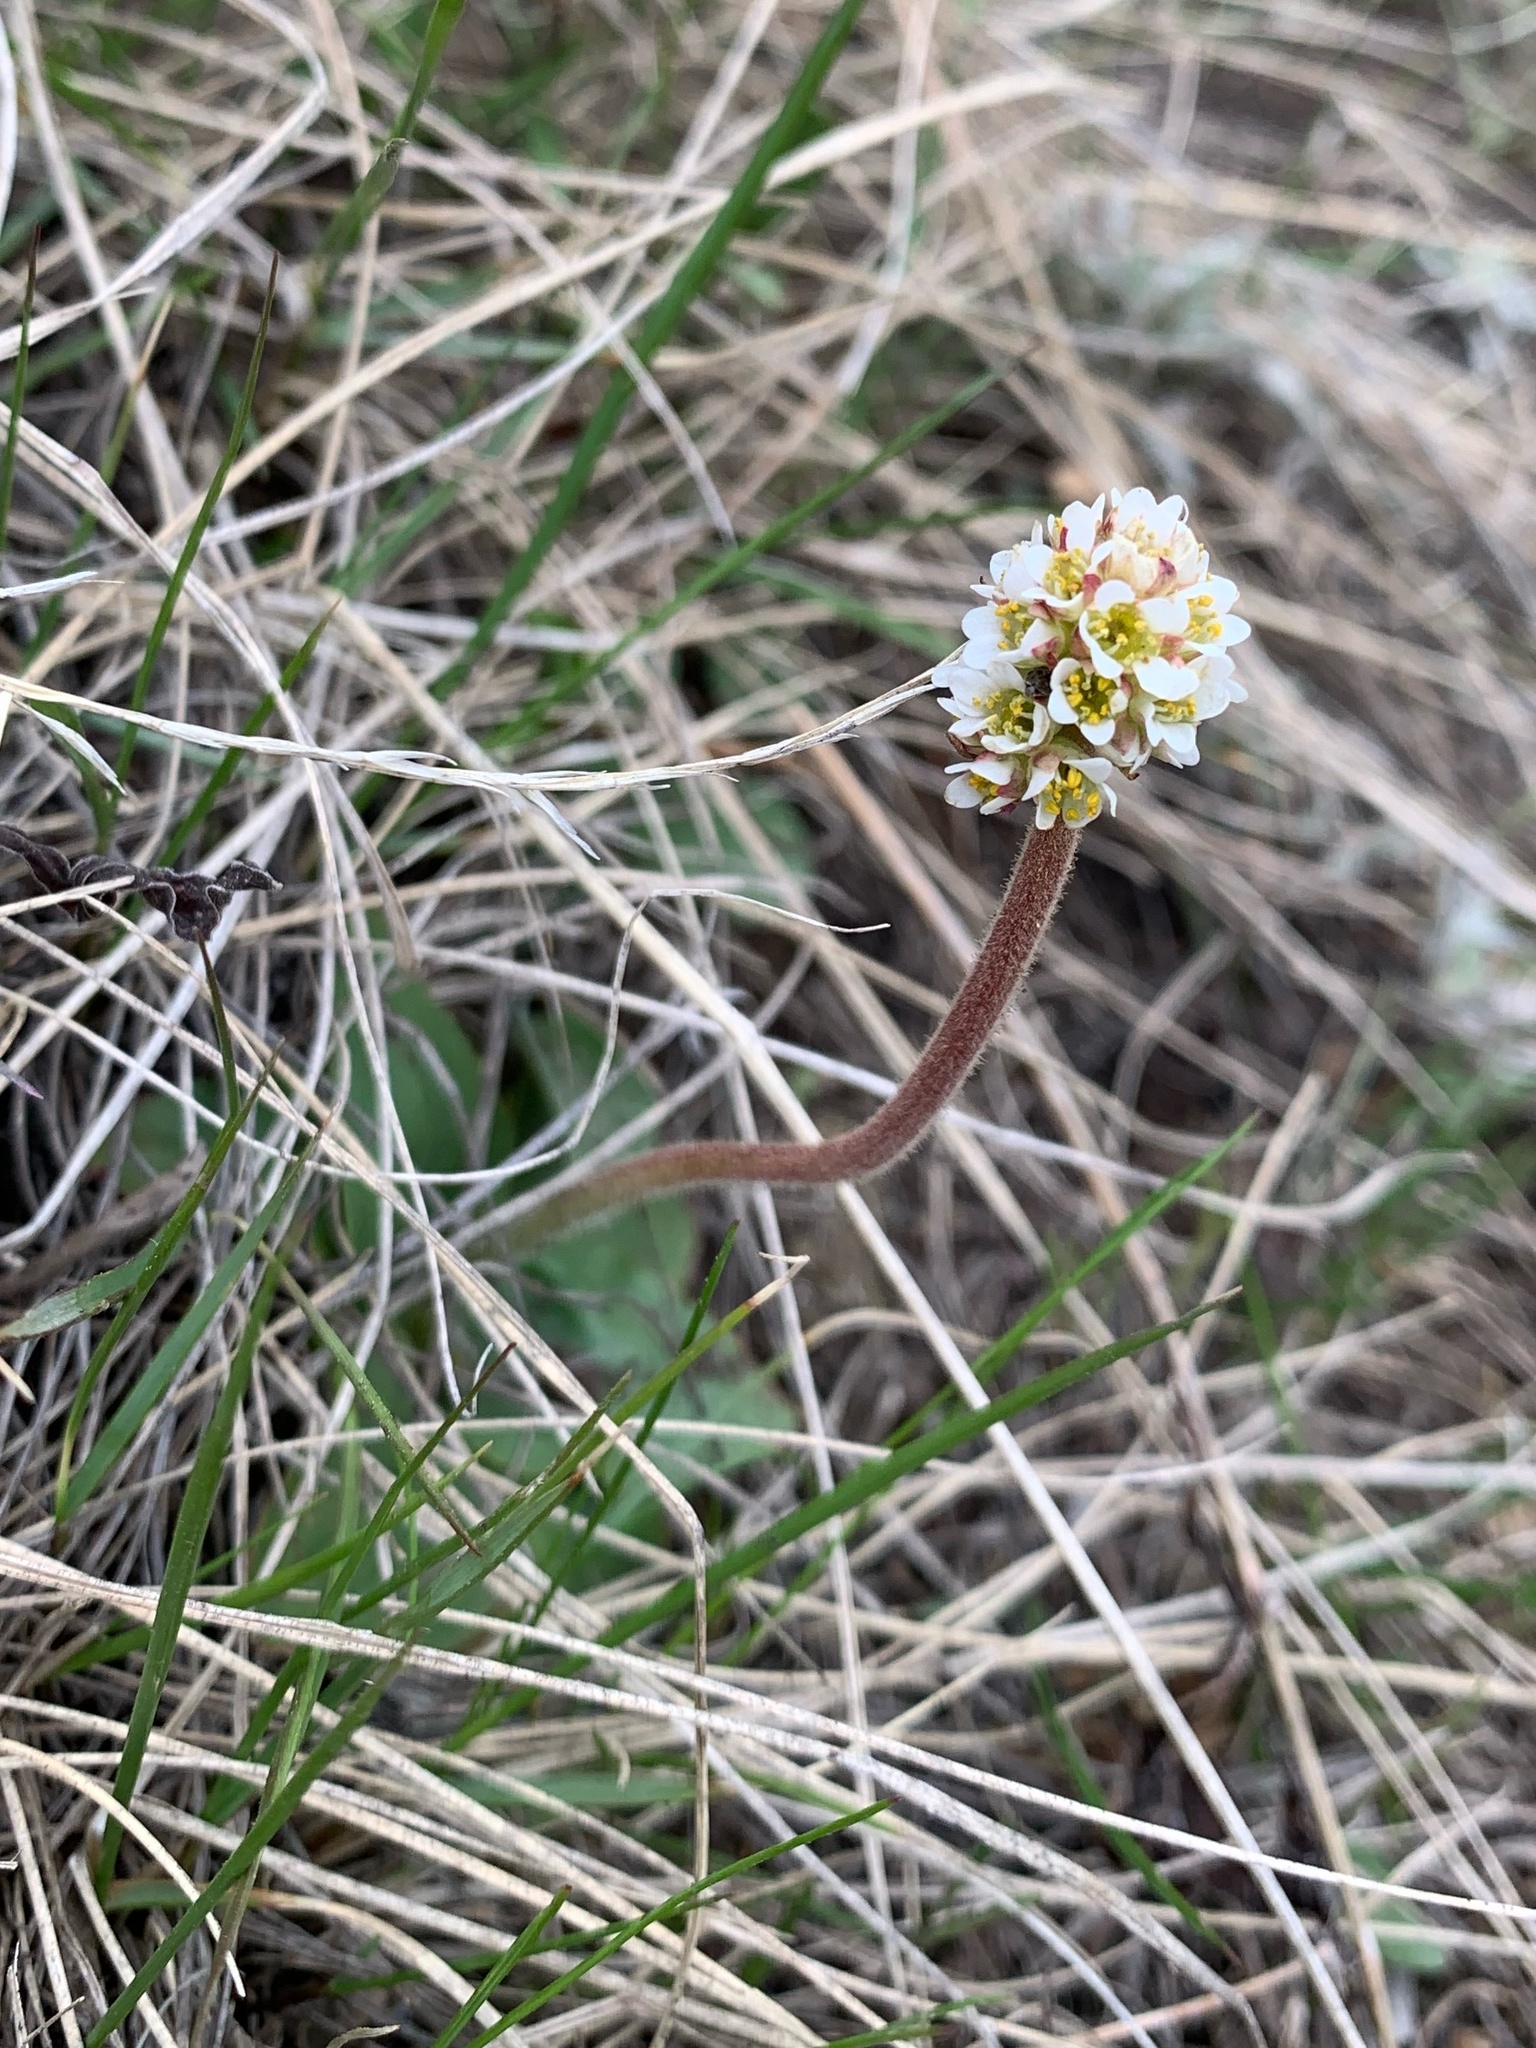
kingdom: Plantae
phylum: Tracheophyta
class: Magnoliopsida
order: Saxifragales
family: Saxifragaceae
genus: Micranthes
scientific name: Micranthes rhomboidea
